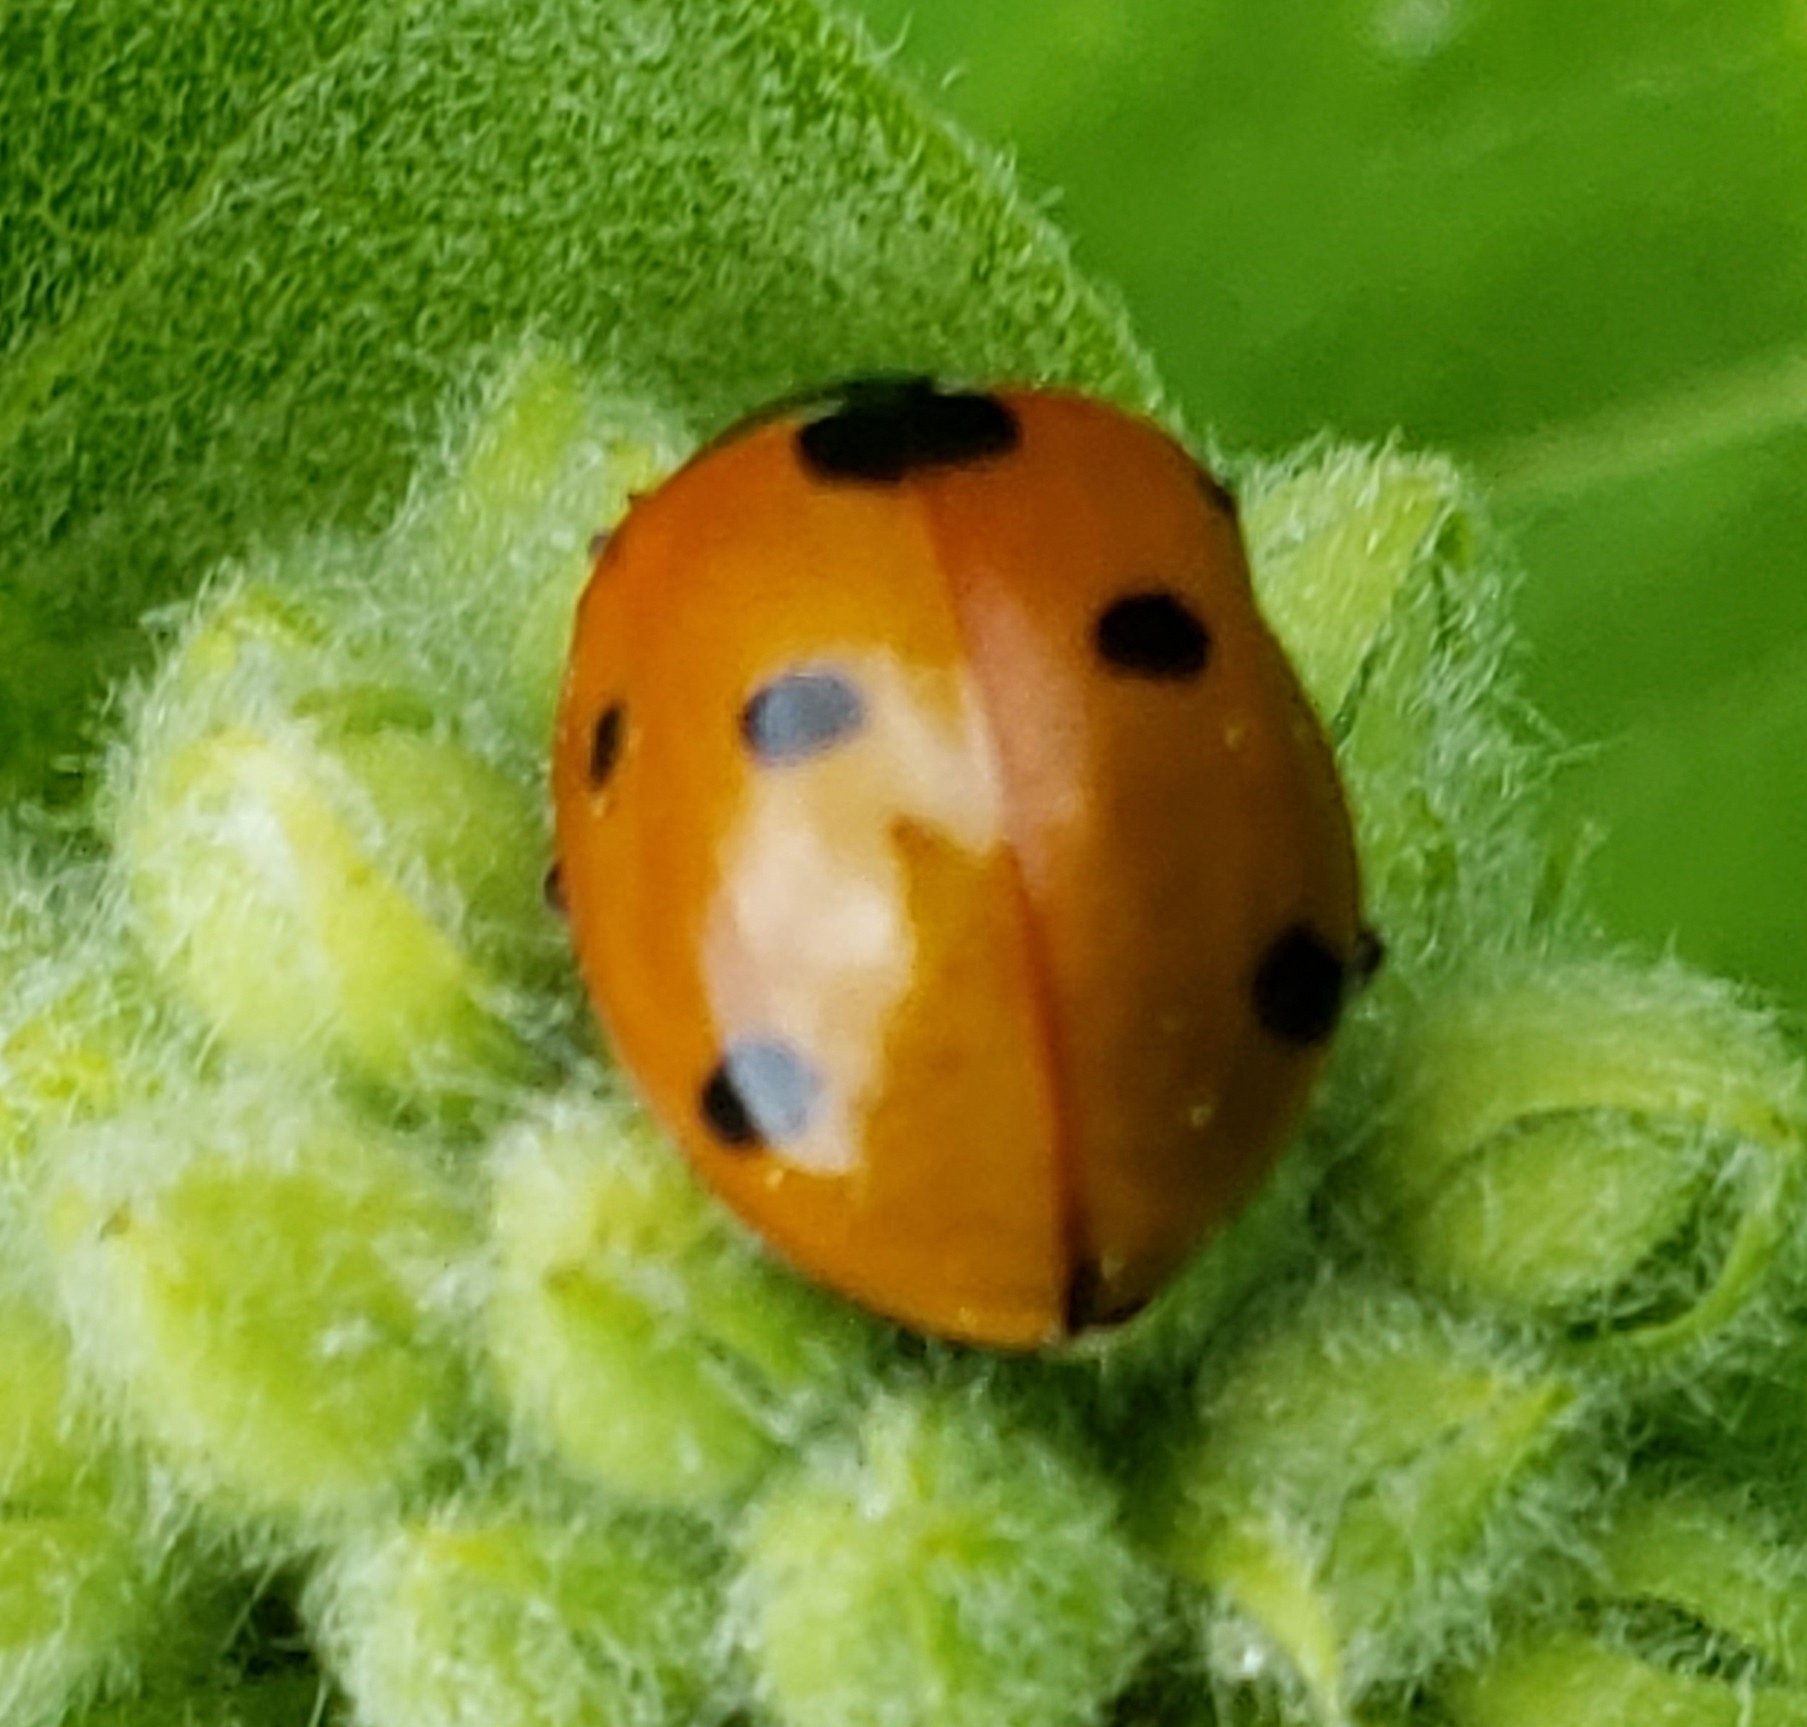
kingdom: Animalia
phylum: Arthropoda
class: Insecta
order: Coleoptera
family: Coccinellidae
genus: Coccinella
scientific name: Coccinella septempunctata
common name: Sevenspotted lady beetle
